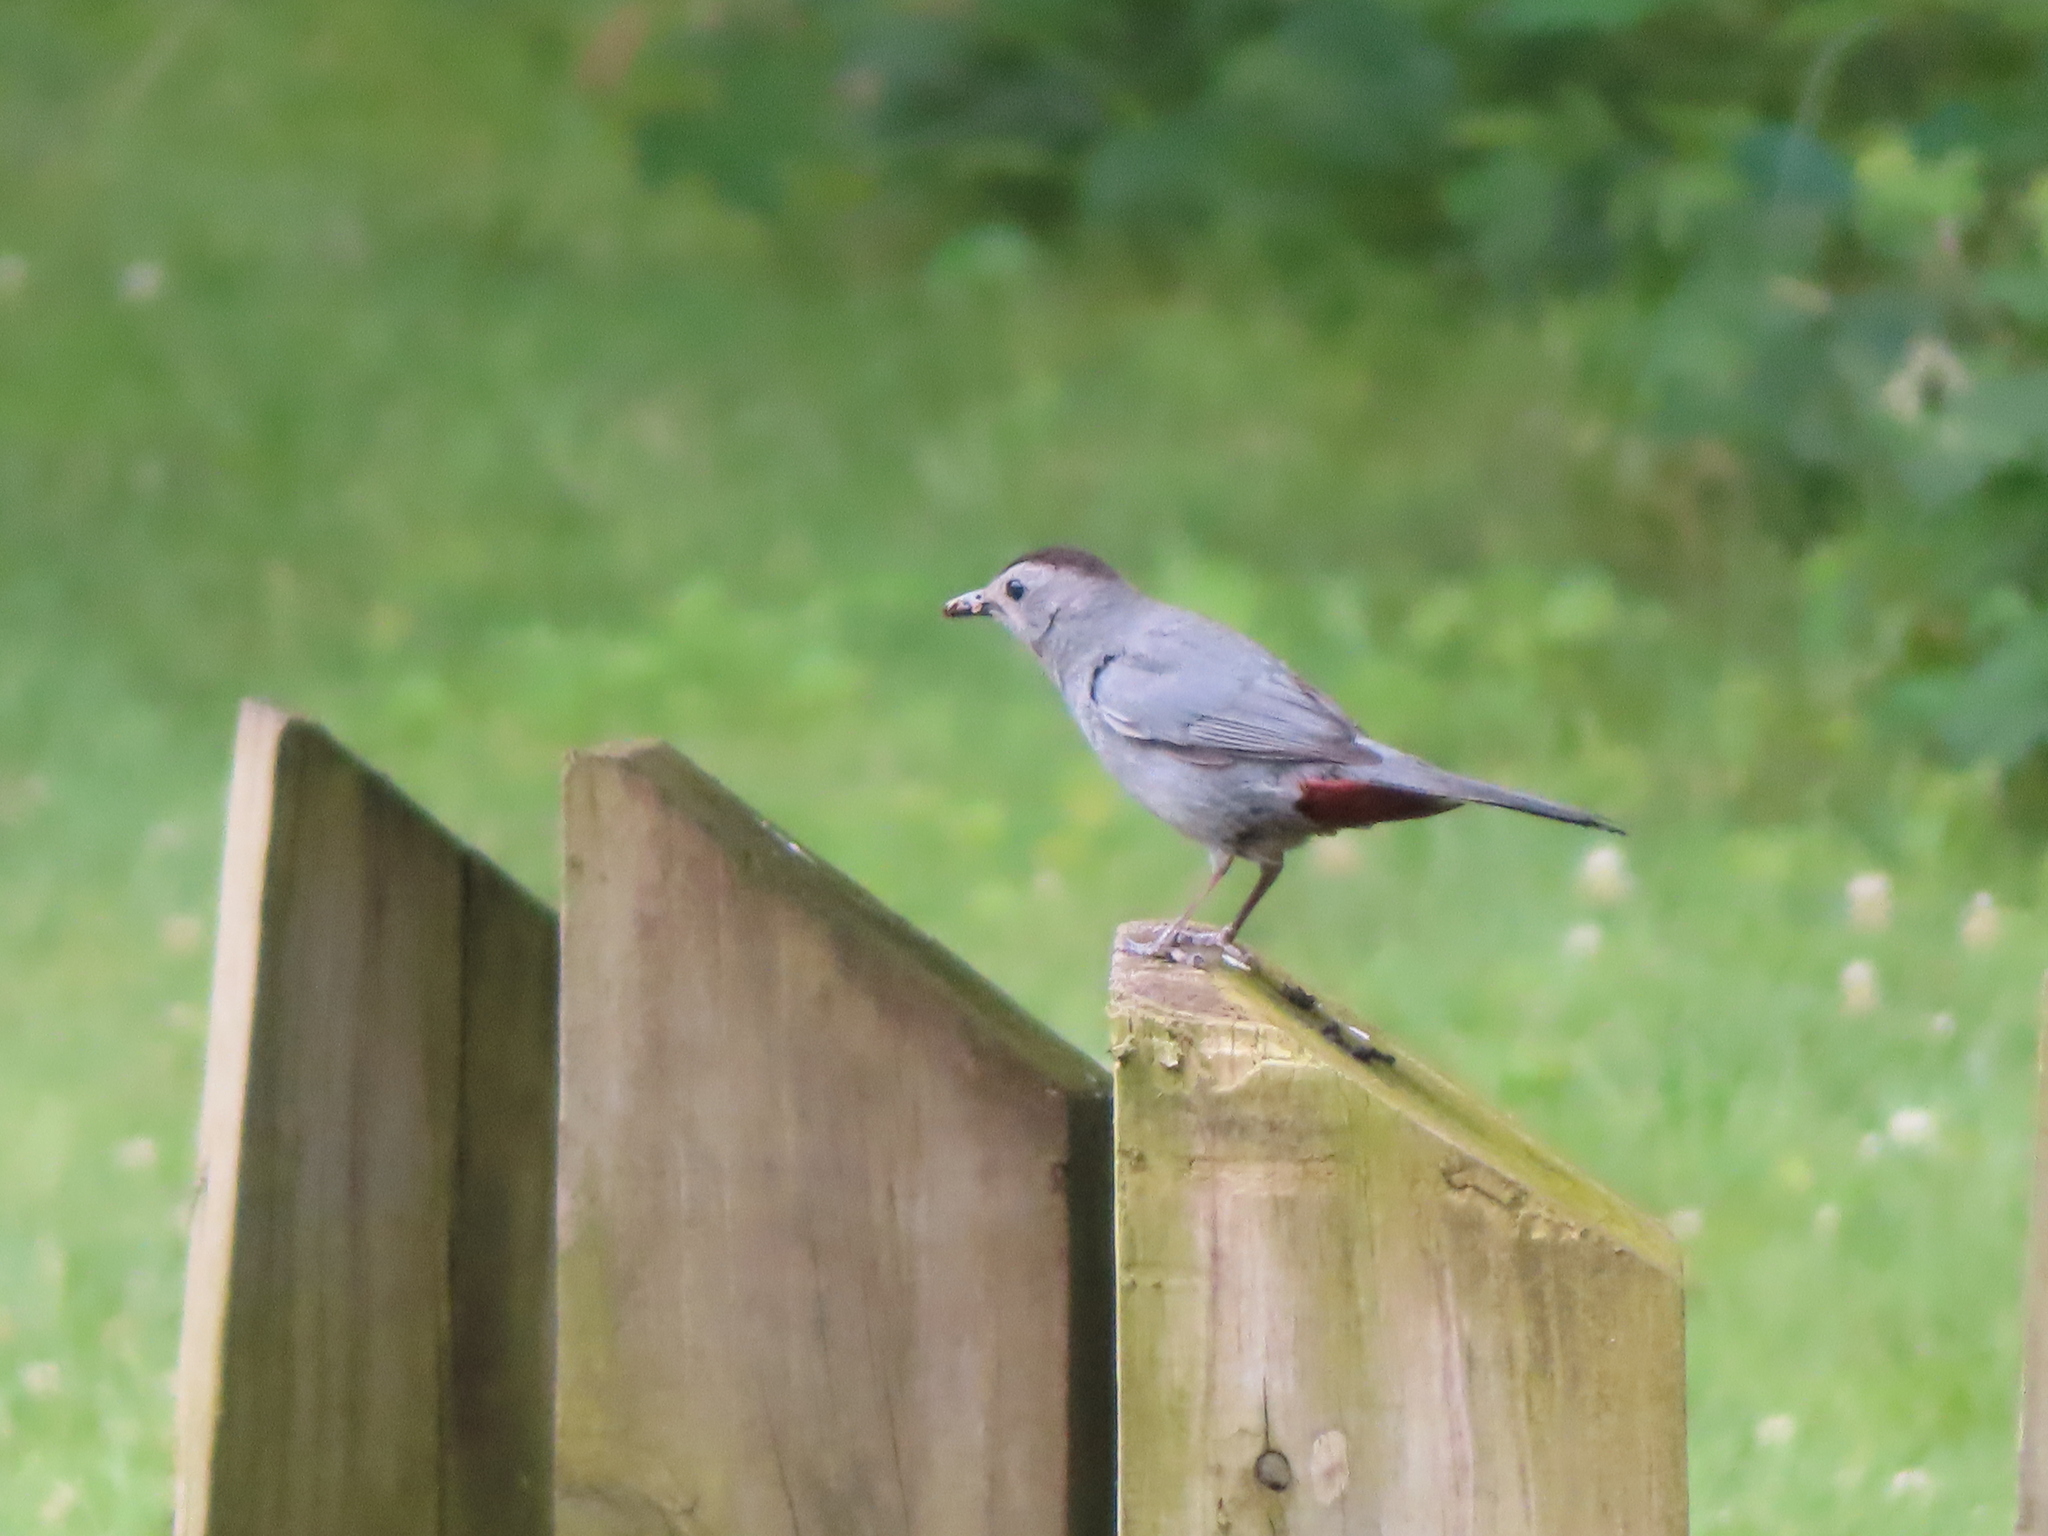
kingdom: Animalia
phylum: Chordata
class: Aves
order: Passeriformes
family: Mimidae
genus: Dumetella
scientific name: Dumetella carolinensis
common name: Gray catbird
